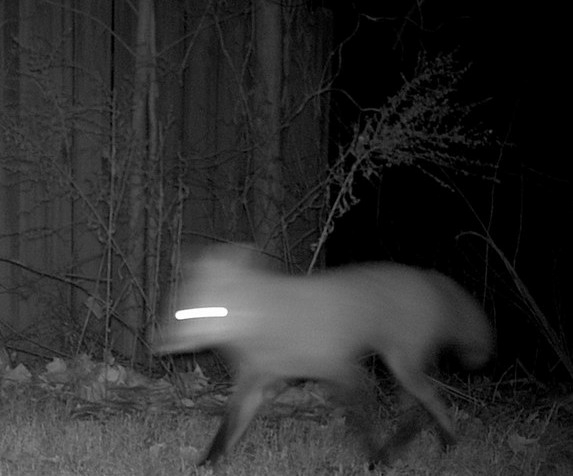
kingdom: Animalia
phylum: Chordata
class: Mammalia
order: Carnivora
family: Canidae
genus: Vulpes
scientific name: Vulpes vulpes
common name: Red fox
